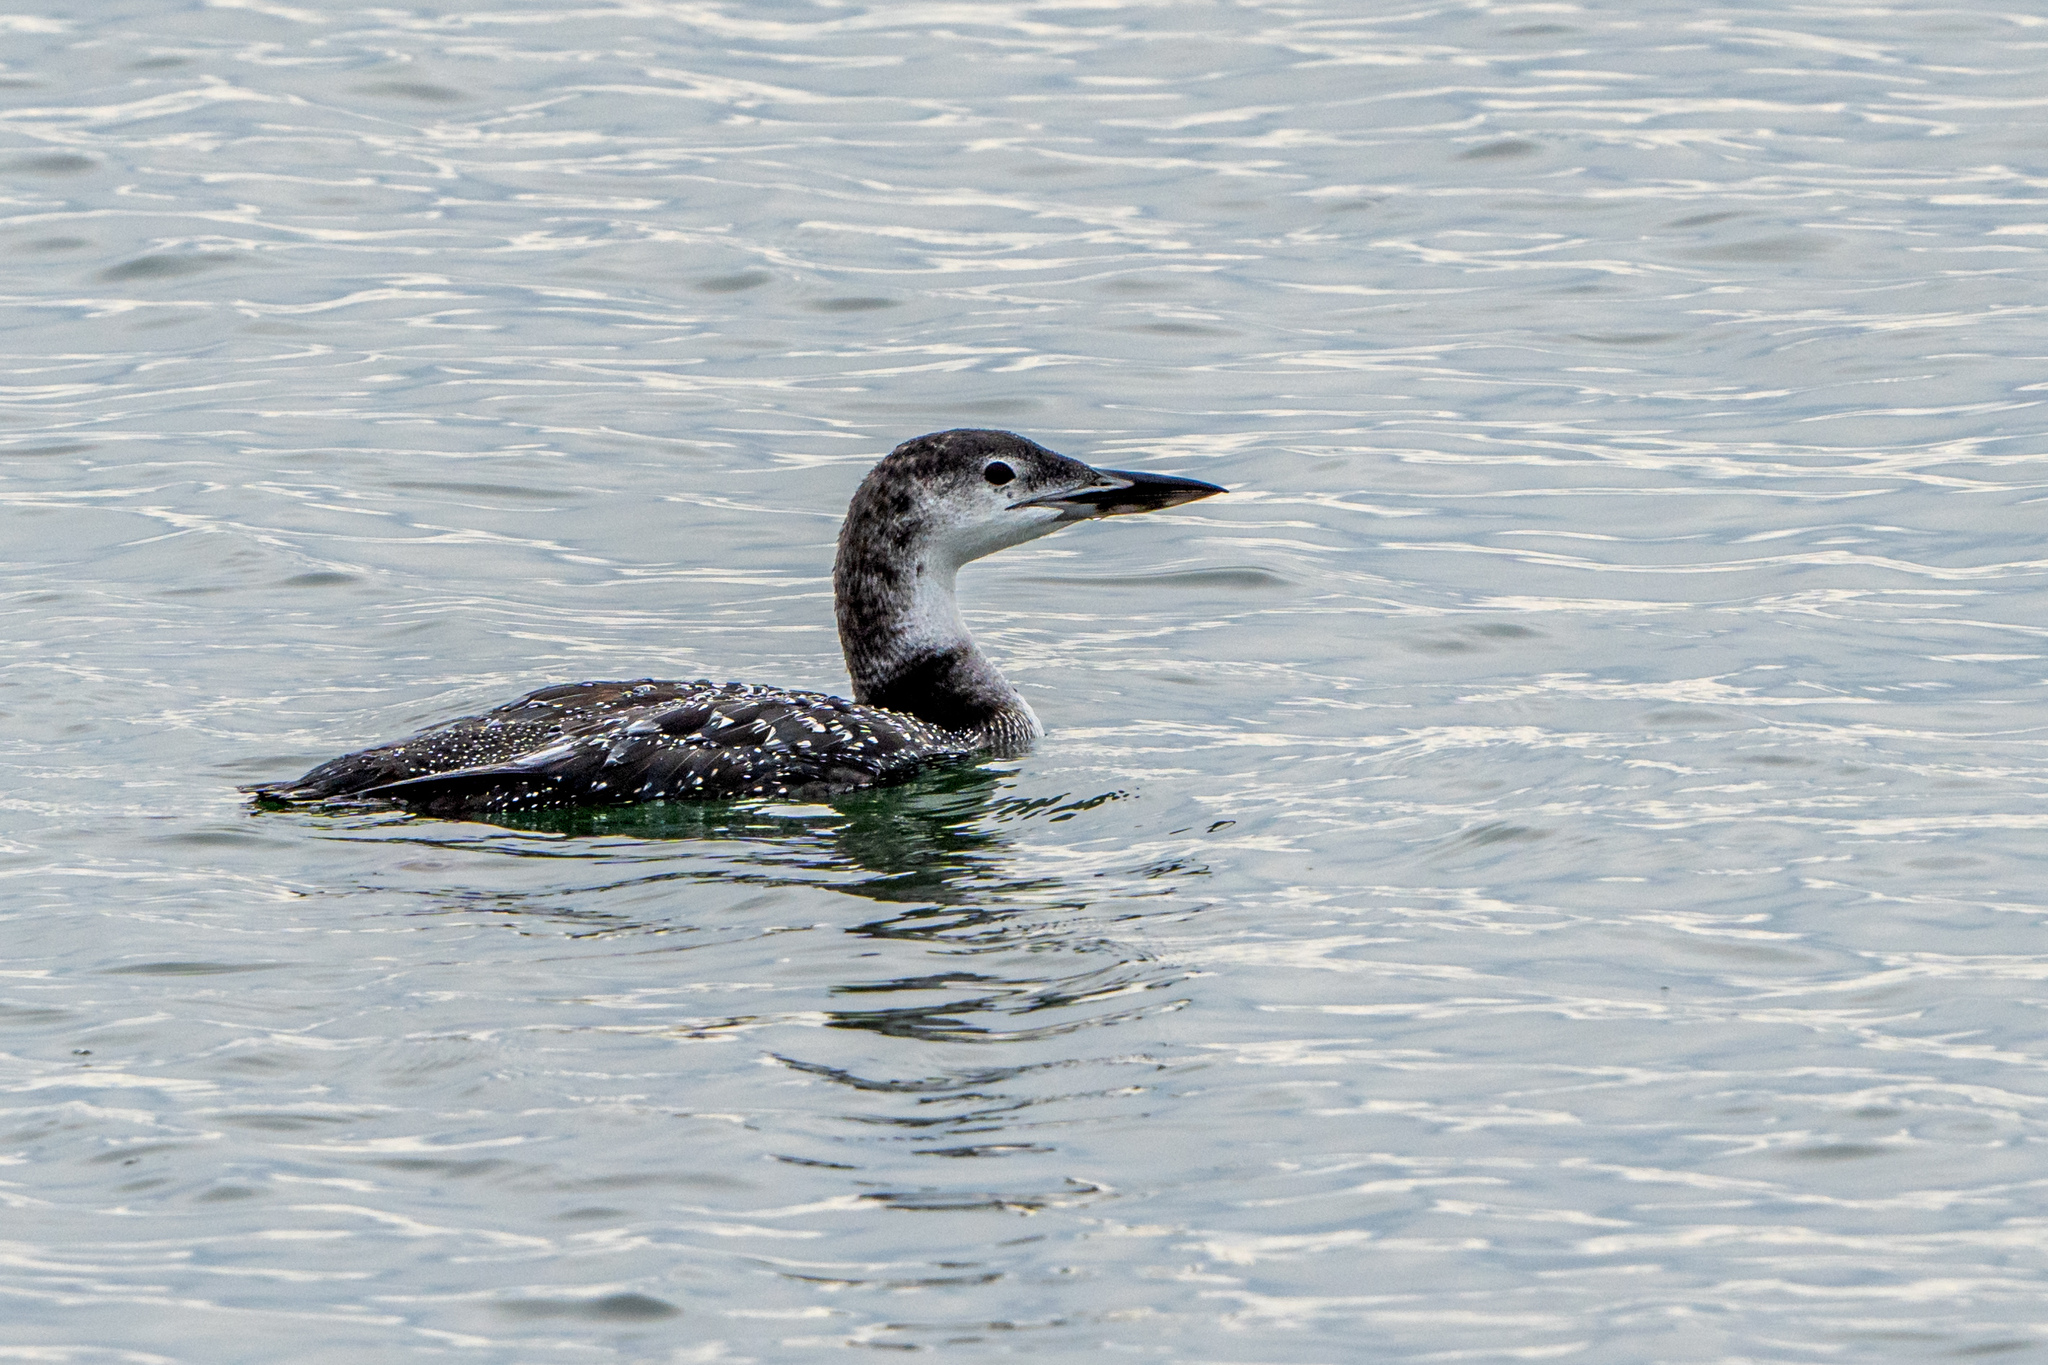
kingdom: Animalia
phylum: Chordata
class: Aves
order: Gaviiformes
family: Gaviidae
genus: Gavia
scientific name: Gavia immer
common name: Common loon
